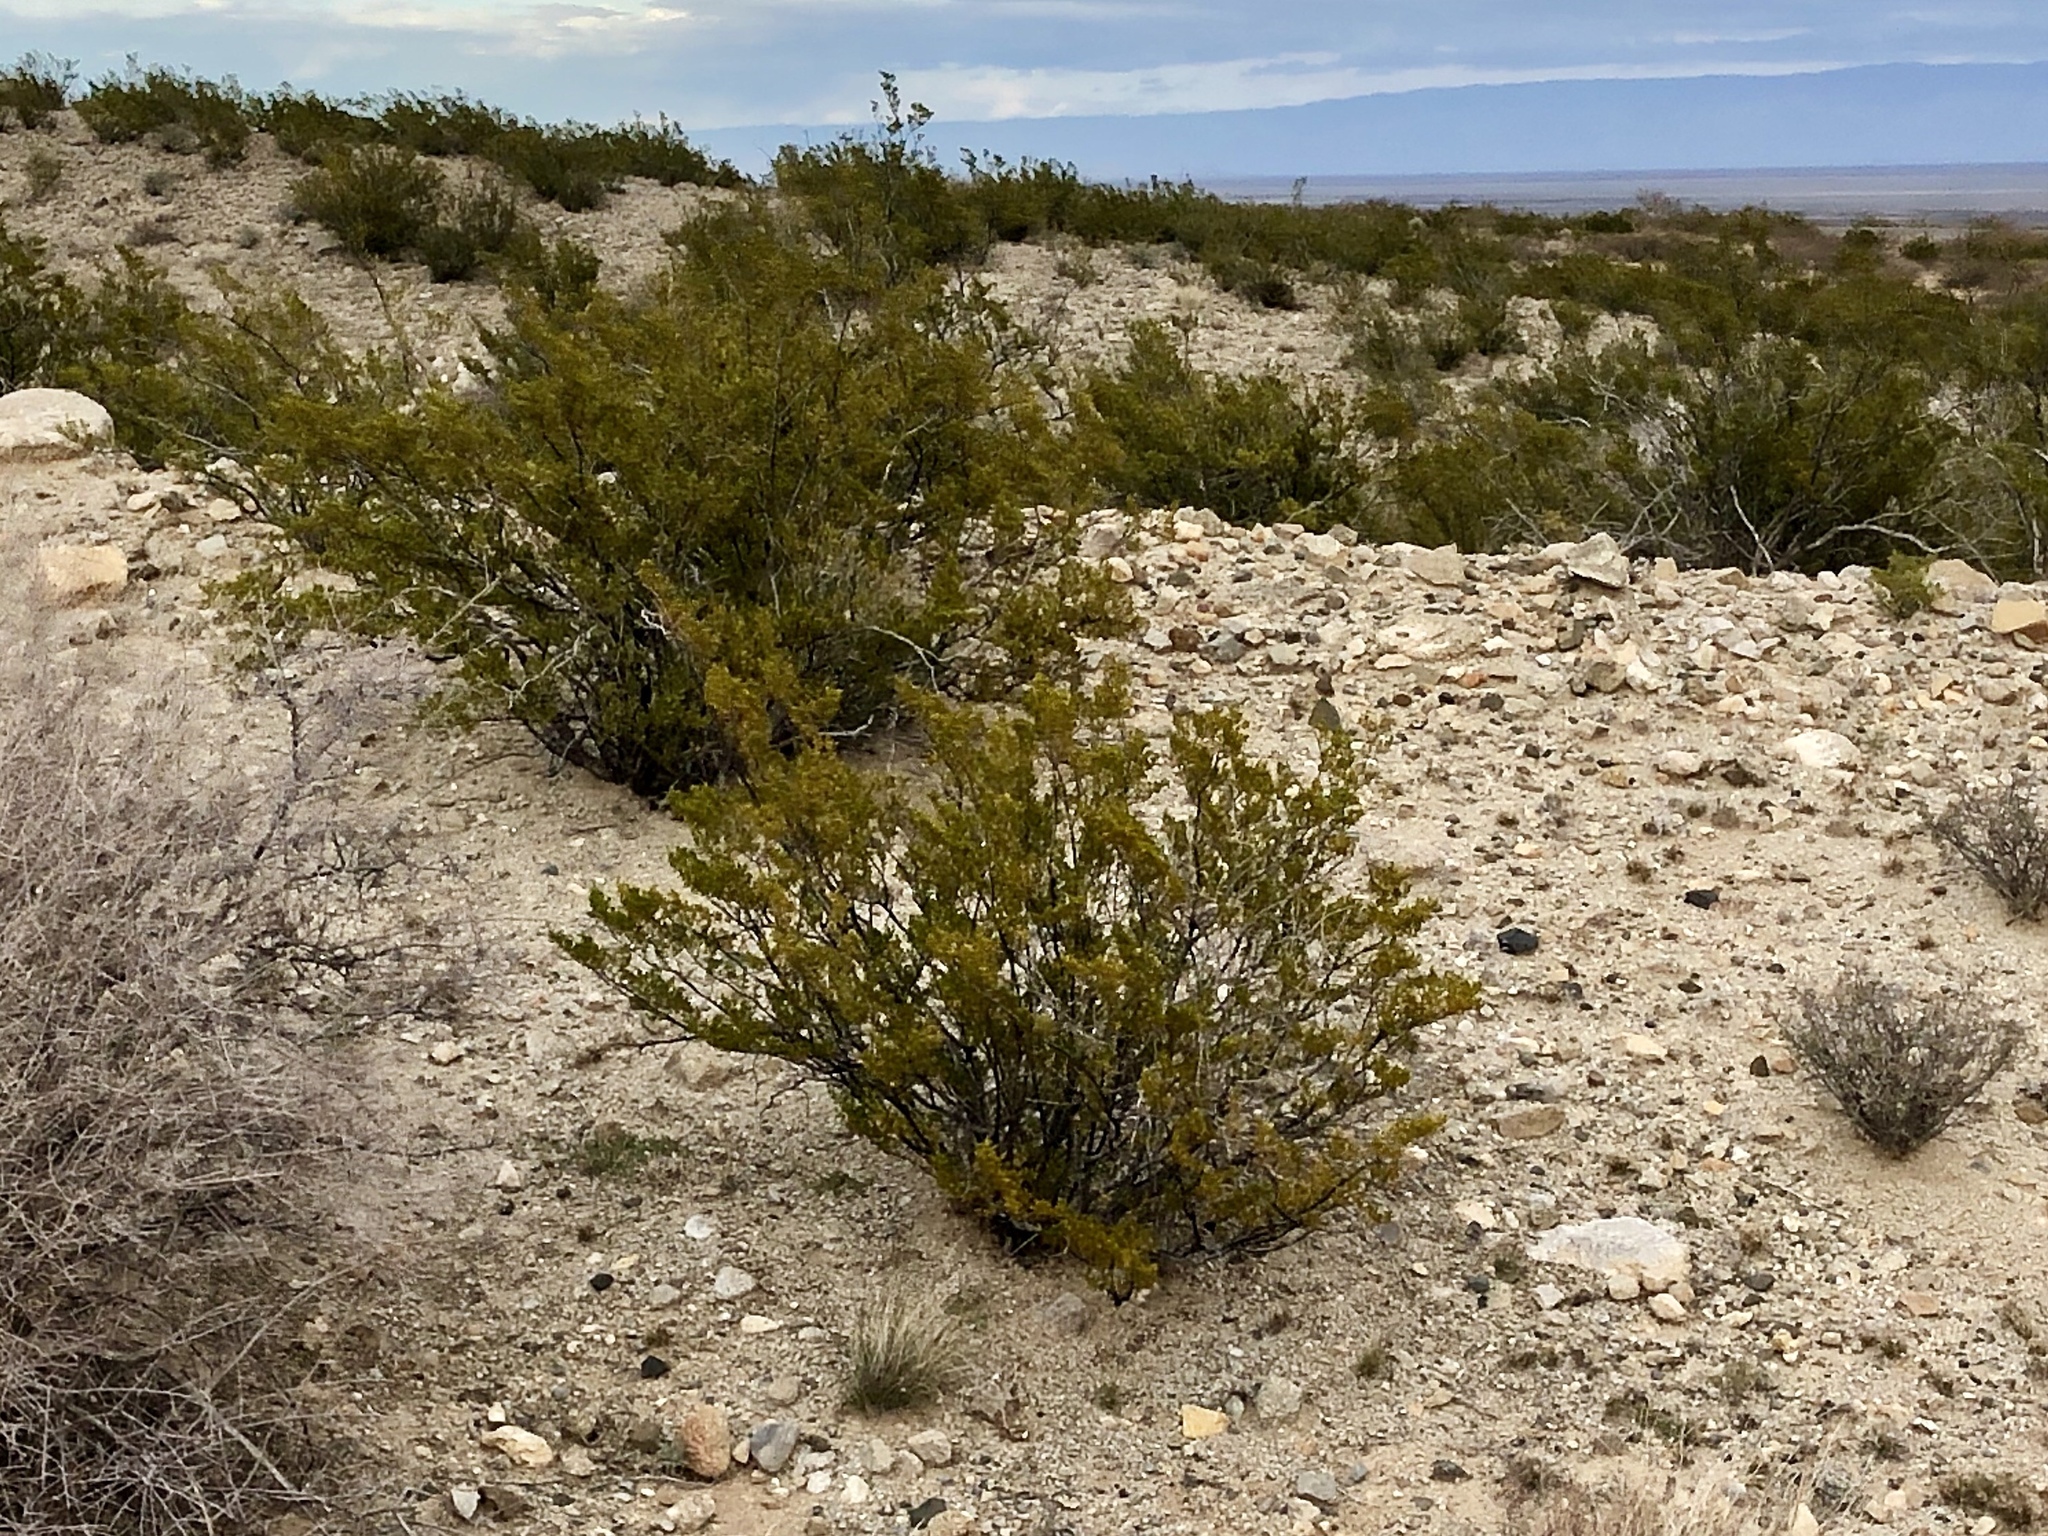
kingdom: Plantae
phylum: Tracheophyta
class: Magnoliopsida
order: Zygophyllales
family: Zygophyllaceae
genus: Larrea
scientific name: Larrea tridentata
